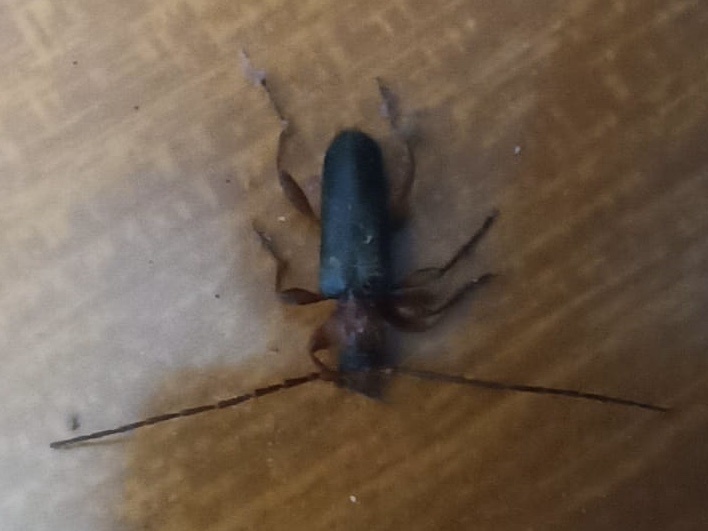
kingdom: Animalia
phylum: Arthropoda
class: Insecta
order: Coleoptera
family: Cerambycidae
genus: Phymatodes
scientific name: Phymatodes testaceus
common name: Long-horned beetle
